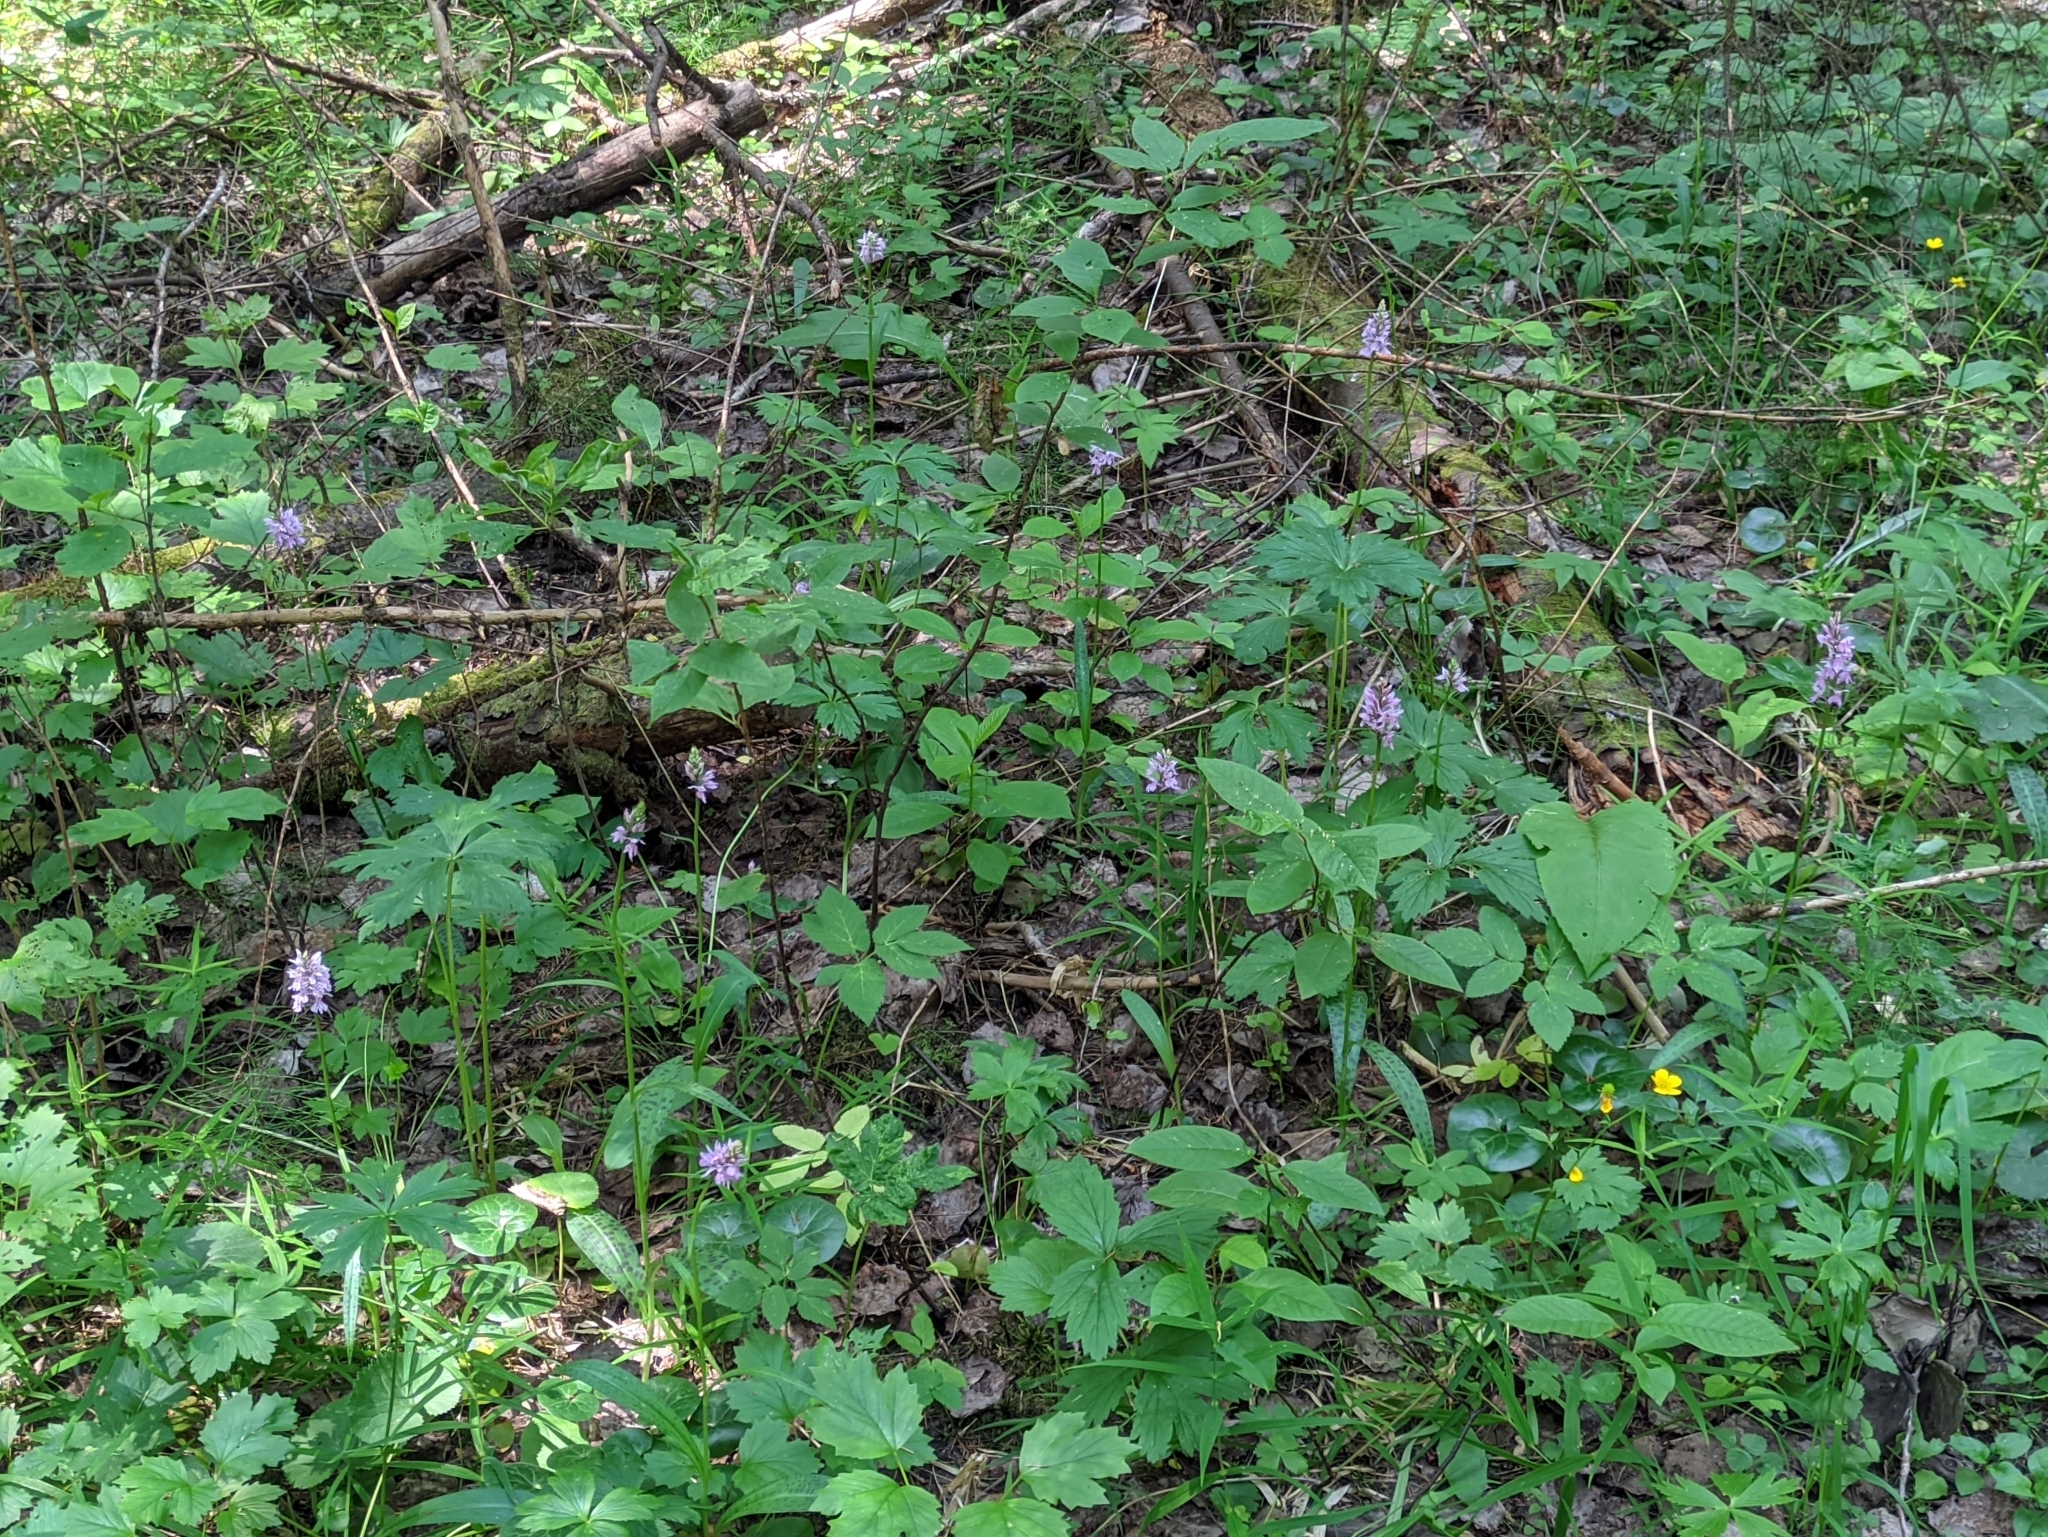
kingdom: Plantae
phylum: Tracheophyta
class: Liliopsida
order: Asparagales
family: Orchidaceae
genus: Dactylorhiza
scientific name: Dactylorhiza maculata
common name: Heath spotted-orchid
